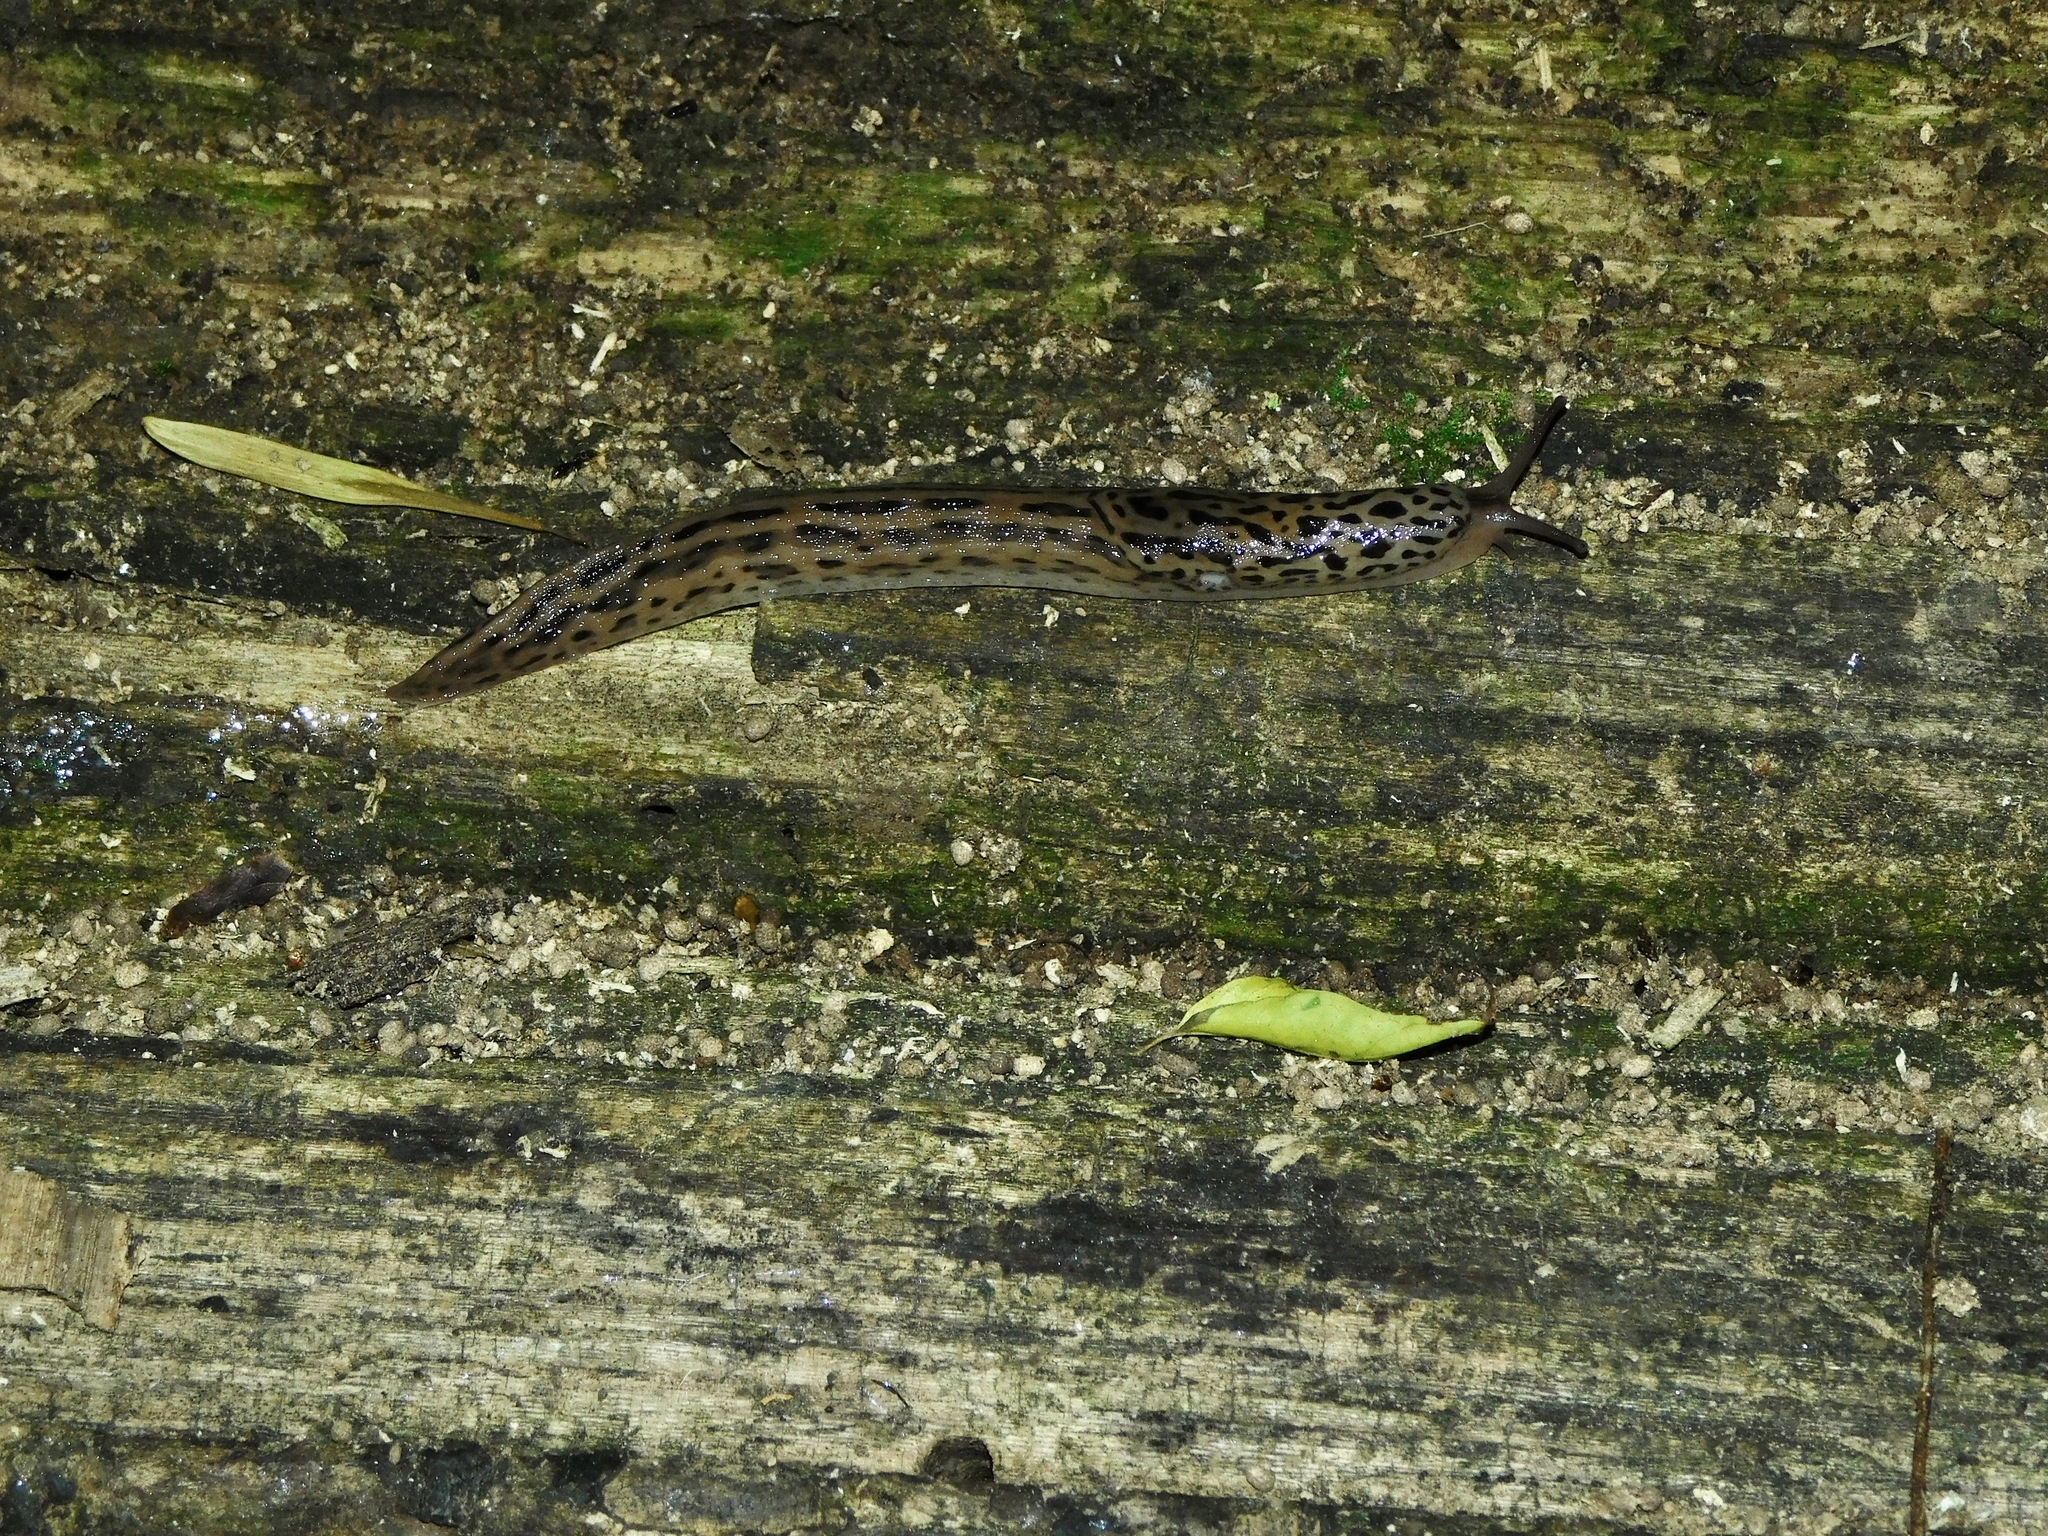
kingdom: Animalia
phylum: Mollusca
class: Gastropoda
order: Stylommatophora
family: Limacidae
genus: Limax
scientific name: Limax maximus
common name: Great grey slug
